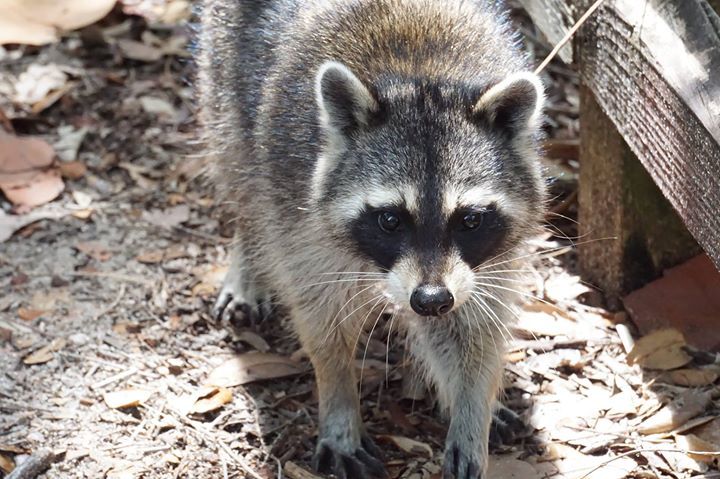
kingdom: Animalia
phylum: Chordata
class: Mammalia
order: Carnivora
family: Procyonidae
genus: Procyon
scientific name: Procyon lotor
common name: Raccoon
